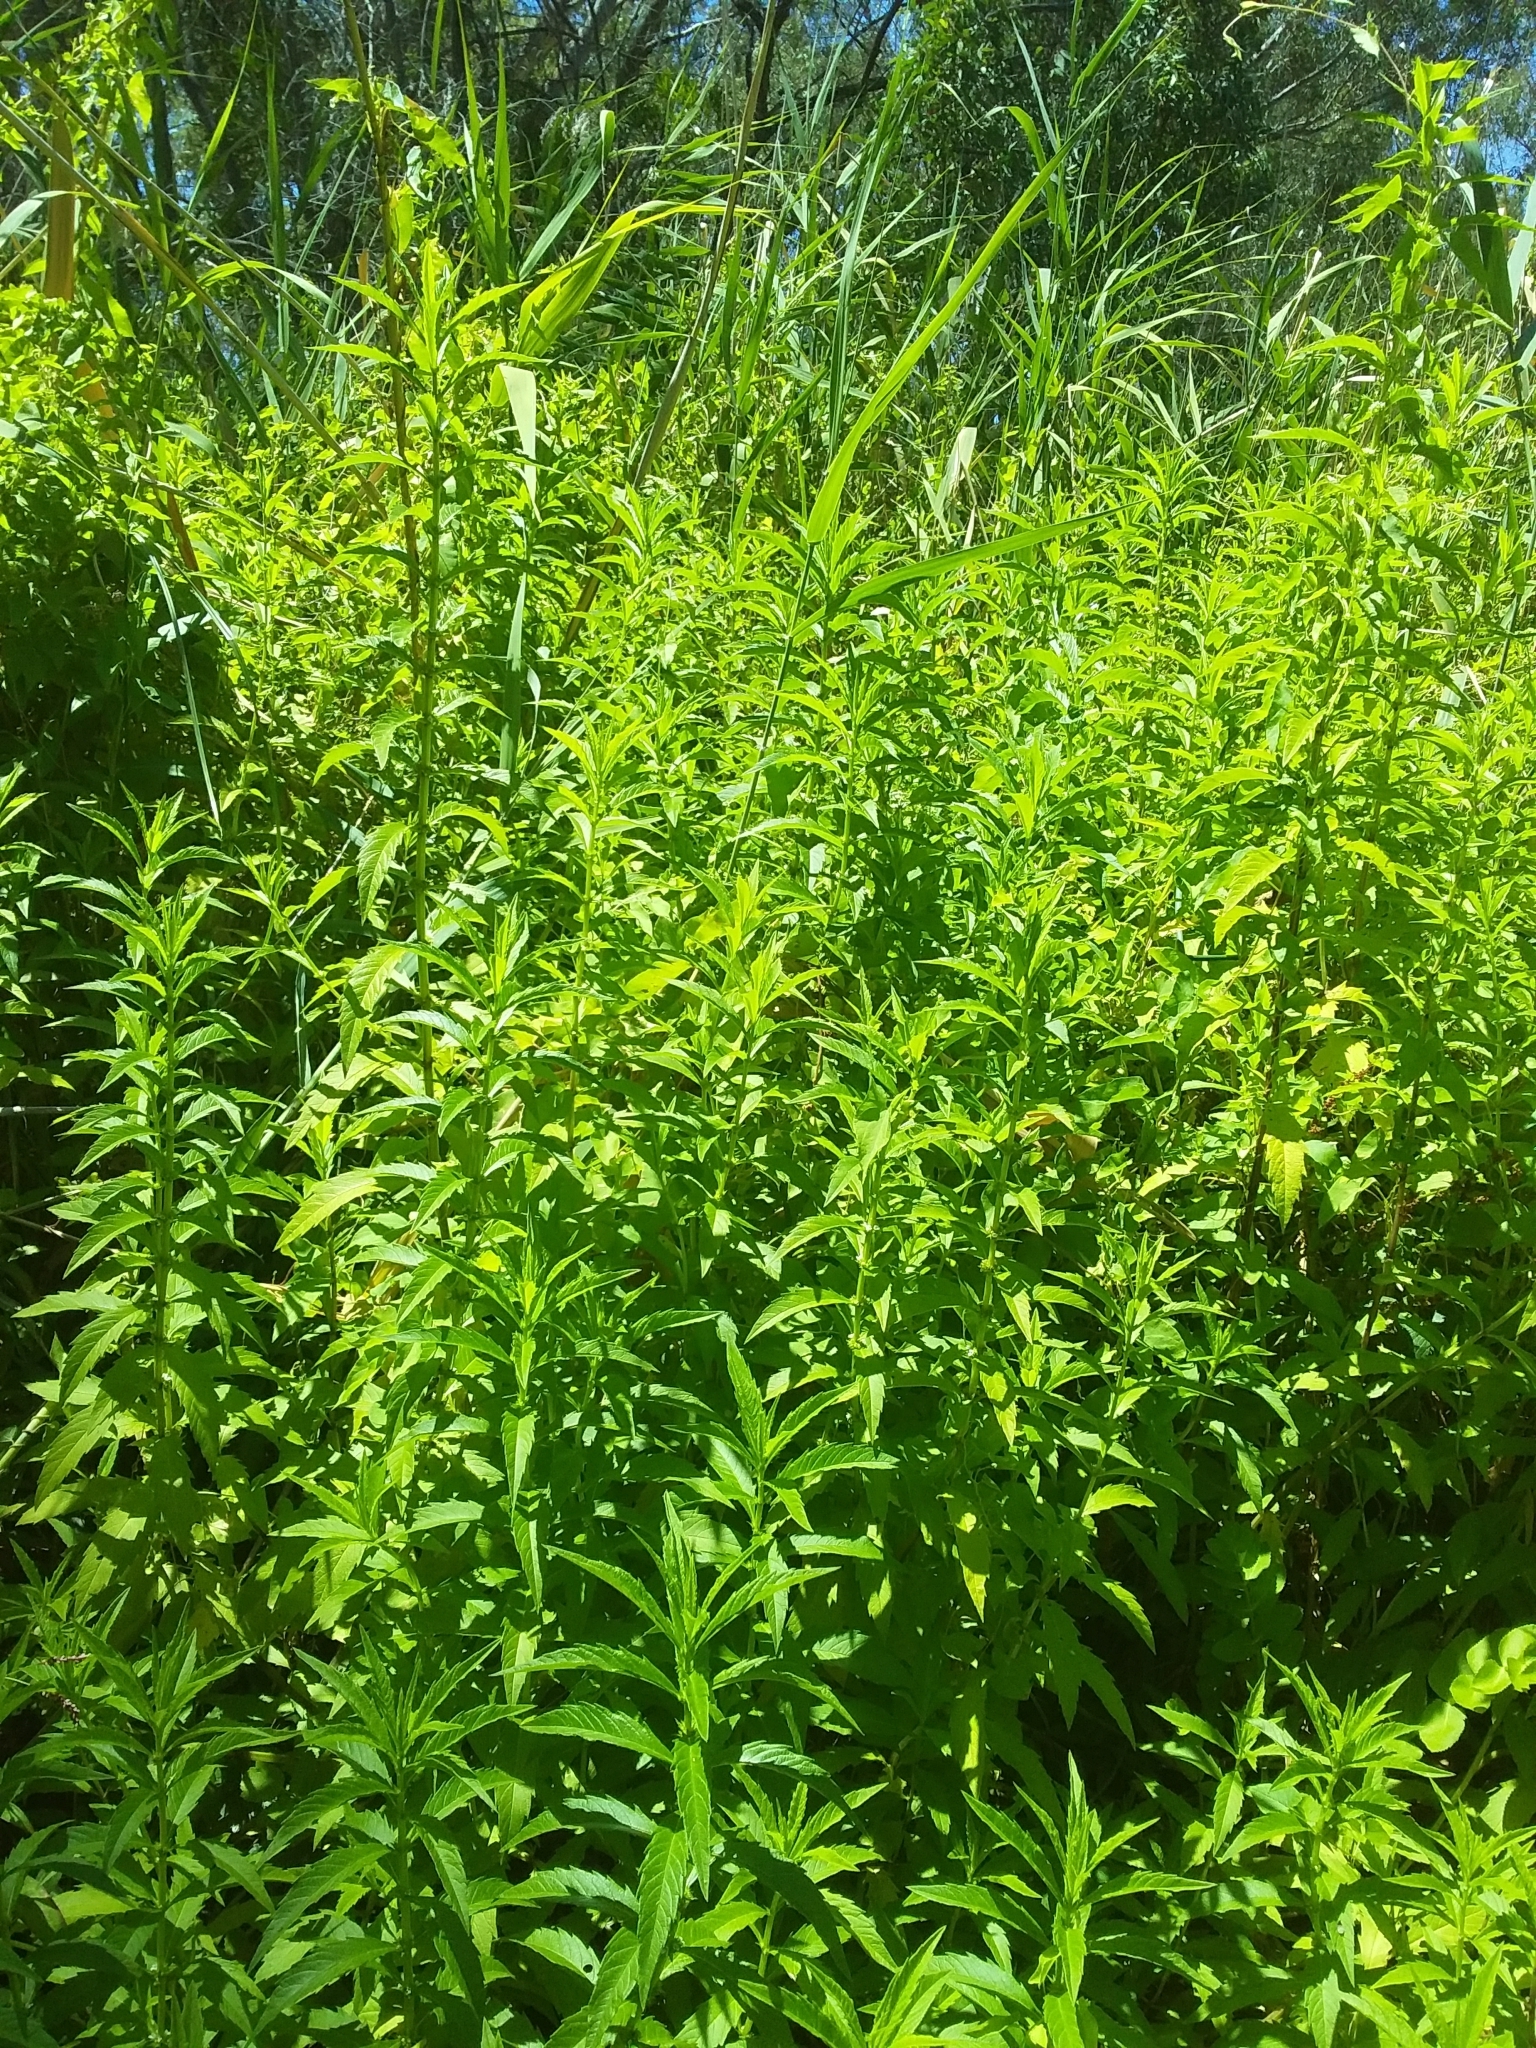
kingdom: Plantae
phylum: Tracheophyta
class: Magnoliopsida
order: Lamiales
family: Lamiaceae
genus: Lycopus
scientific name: Lycopus australis
